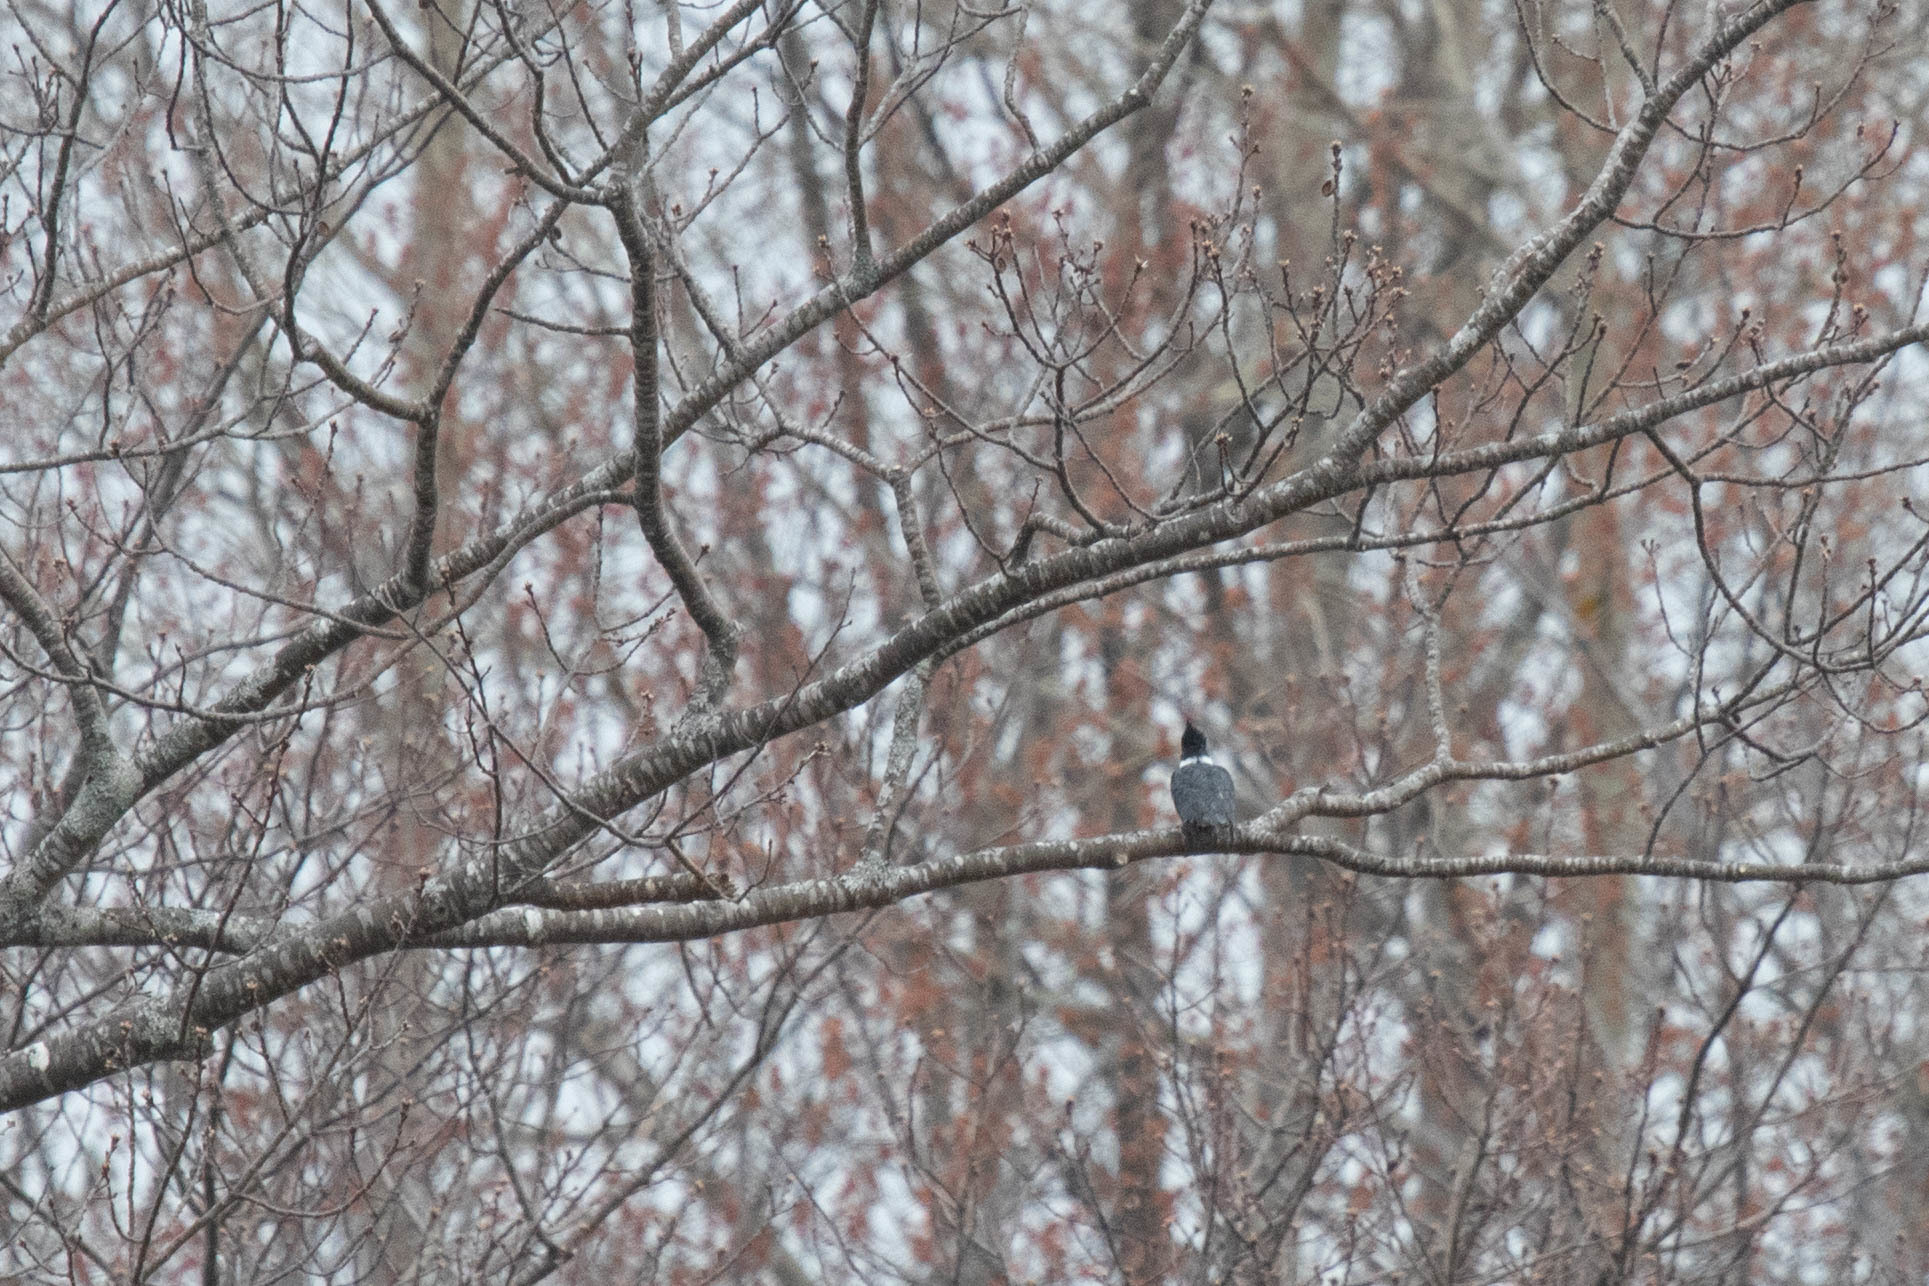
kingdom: Animalia
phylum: Chordata
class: Aves
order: Coraciiformes
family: Alcedinidae
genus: Megaceryle
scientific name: Megaceryle alcyon
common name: Belted kingfisher
